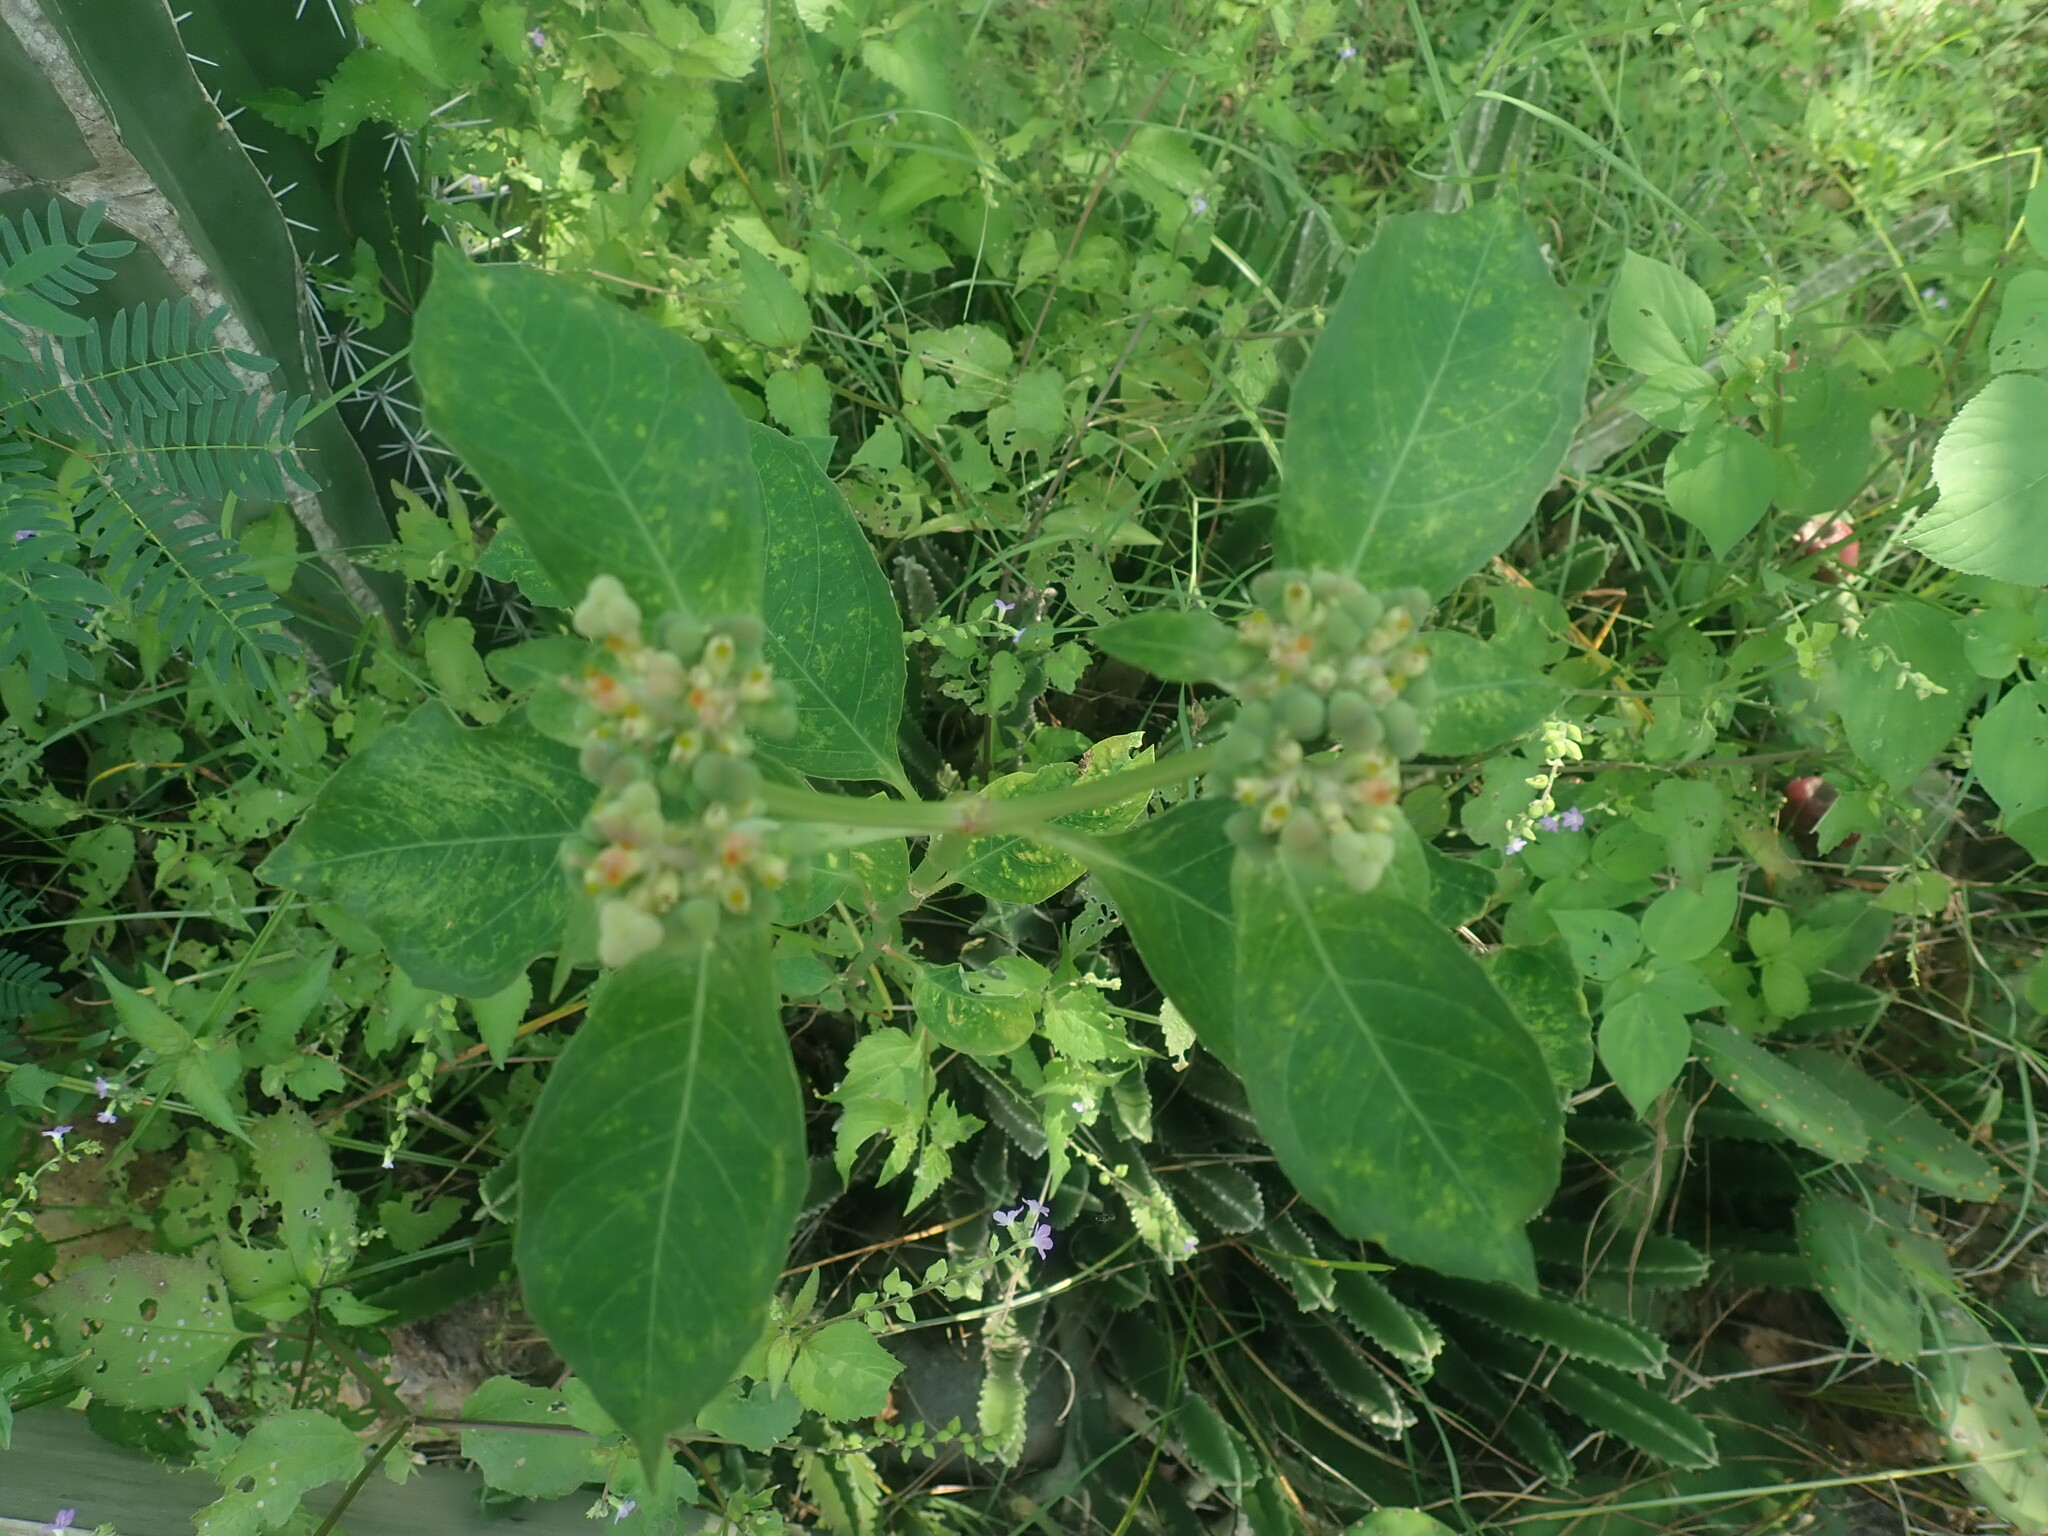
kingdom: Plantae
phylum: Tracheophyta
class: Magnoliopsida
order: Malpighiales
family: Euphorbiaceae
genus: Euphorbia
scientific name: Euphorbia heterophylla
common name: Mexican fireplant
